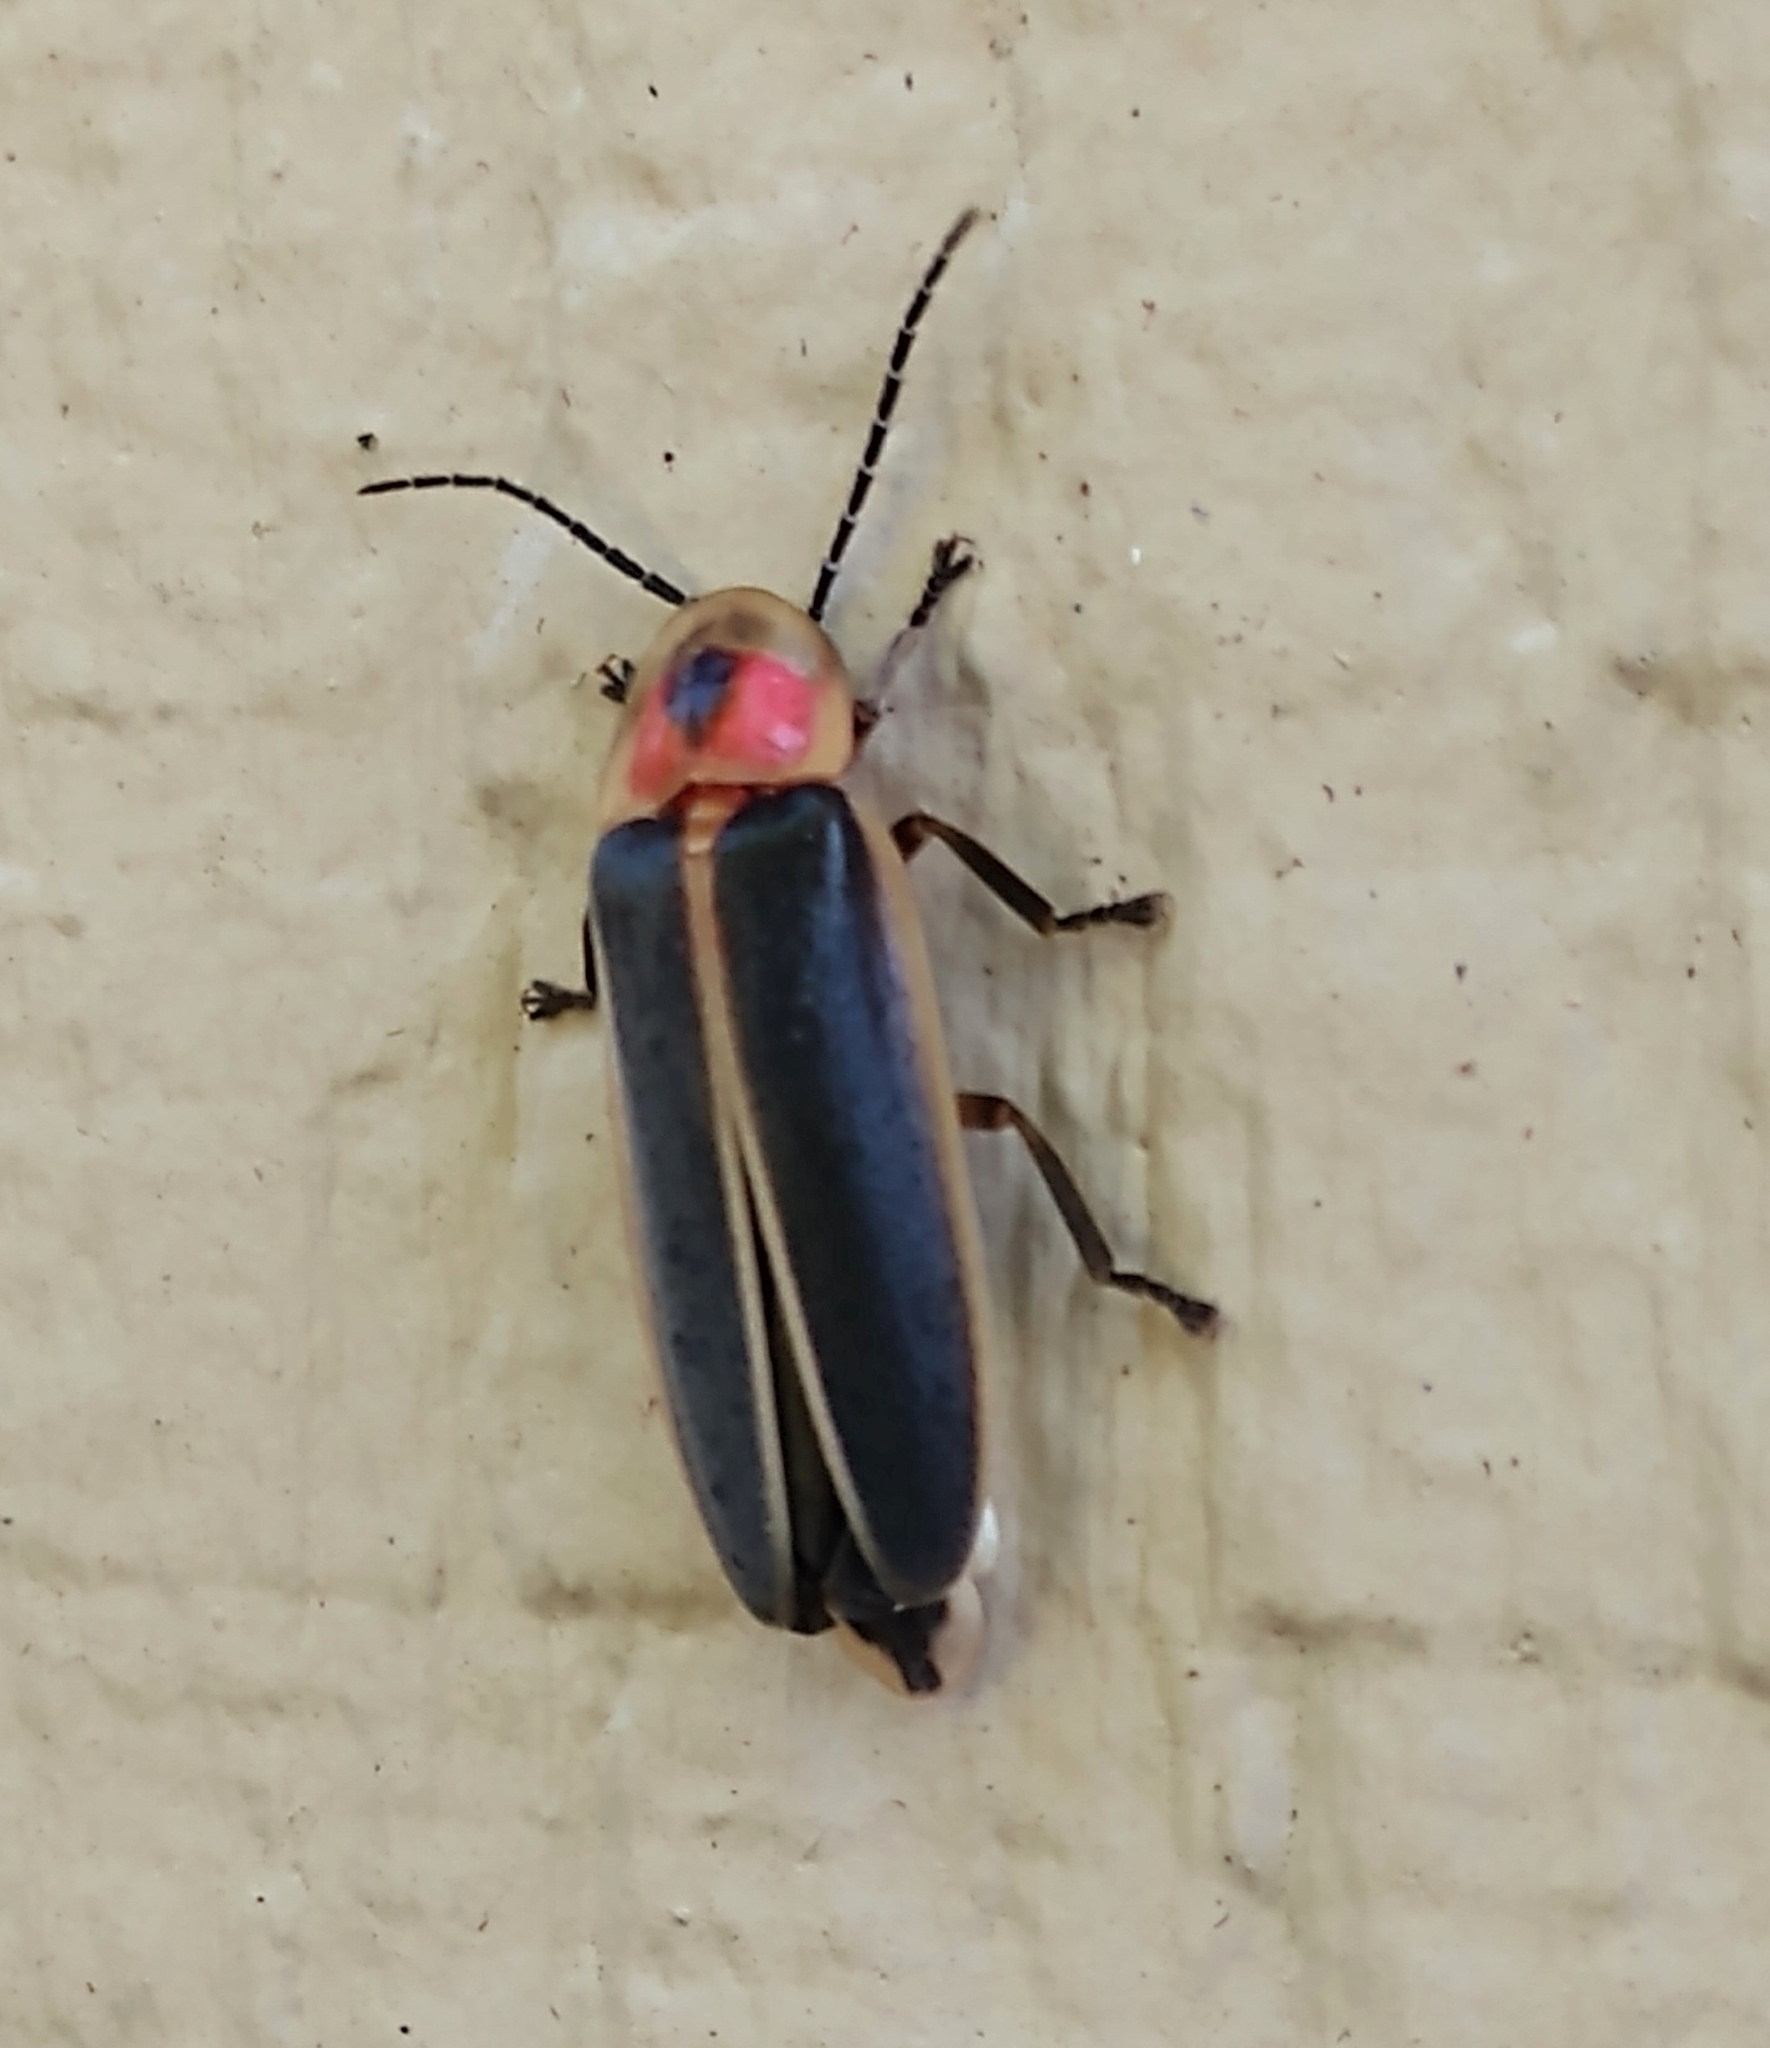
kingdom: Animalia
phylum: Arthropoda
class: Insecta
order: Coleoptera
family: Lampyridae
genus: Photinus
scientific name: Photinus pyralis
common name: Big dipper firefly
